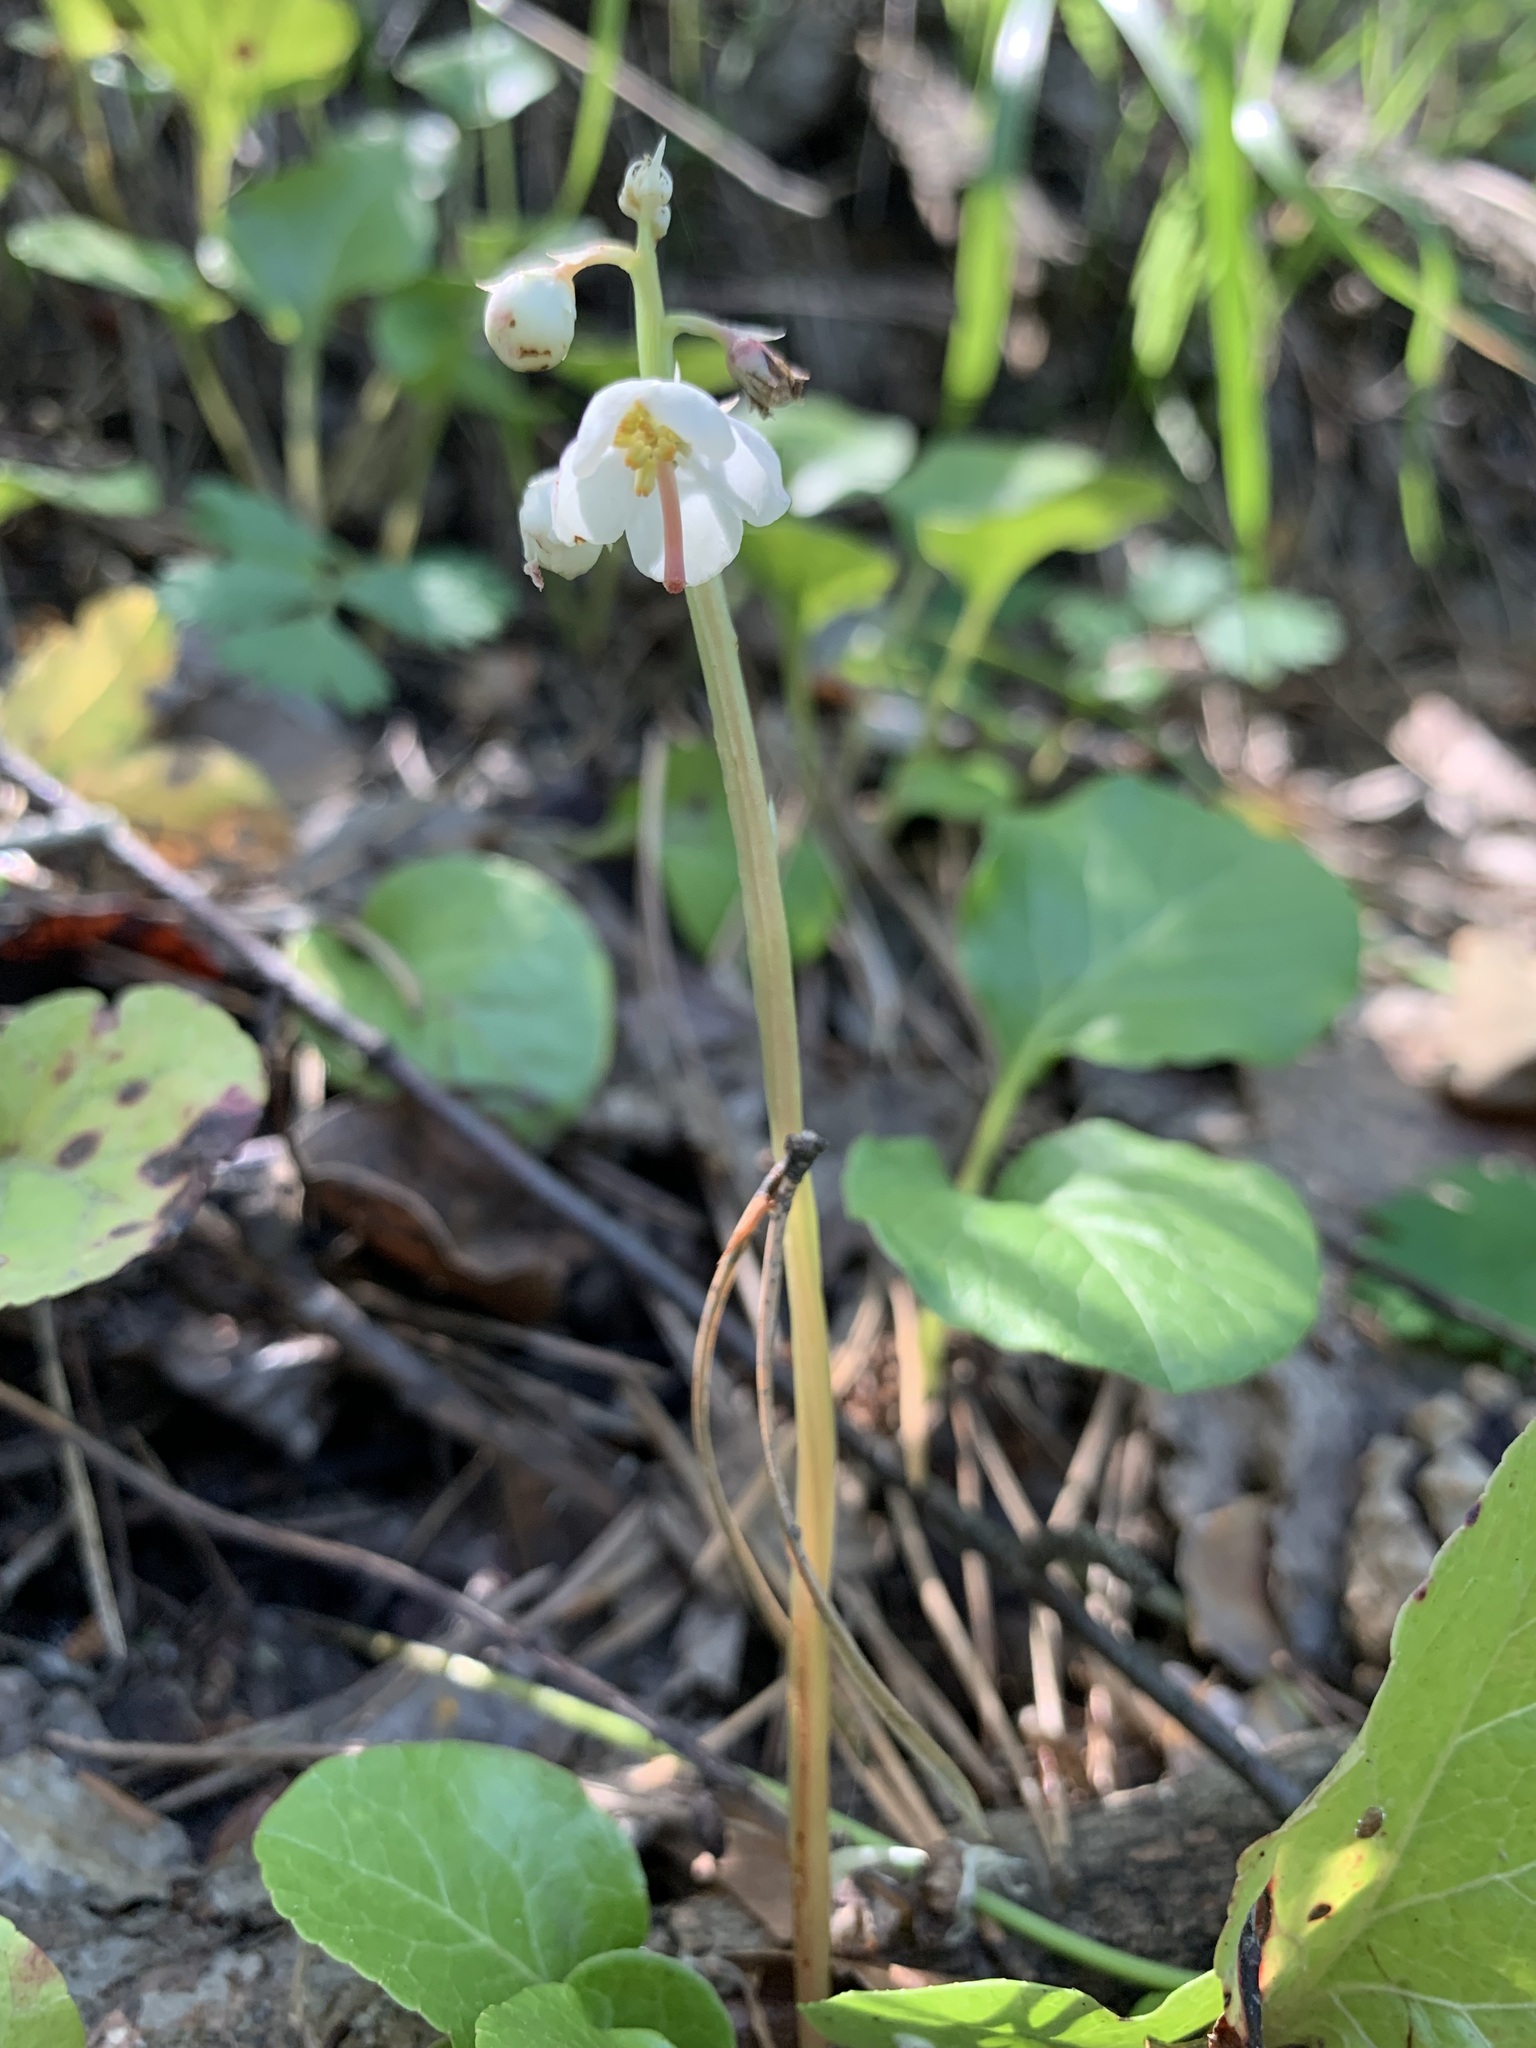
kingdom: Plantae
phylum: Tracheophyta
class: Magnoliopsida
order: Ericales
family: Ericaceae
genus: Pyrola
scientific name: Pyrola rotundifolia
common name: Round-leaved wintergreen
